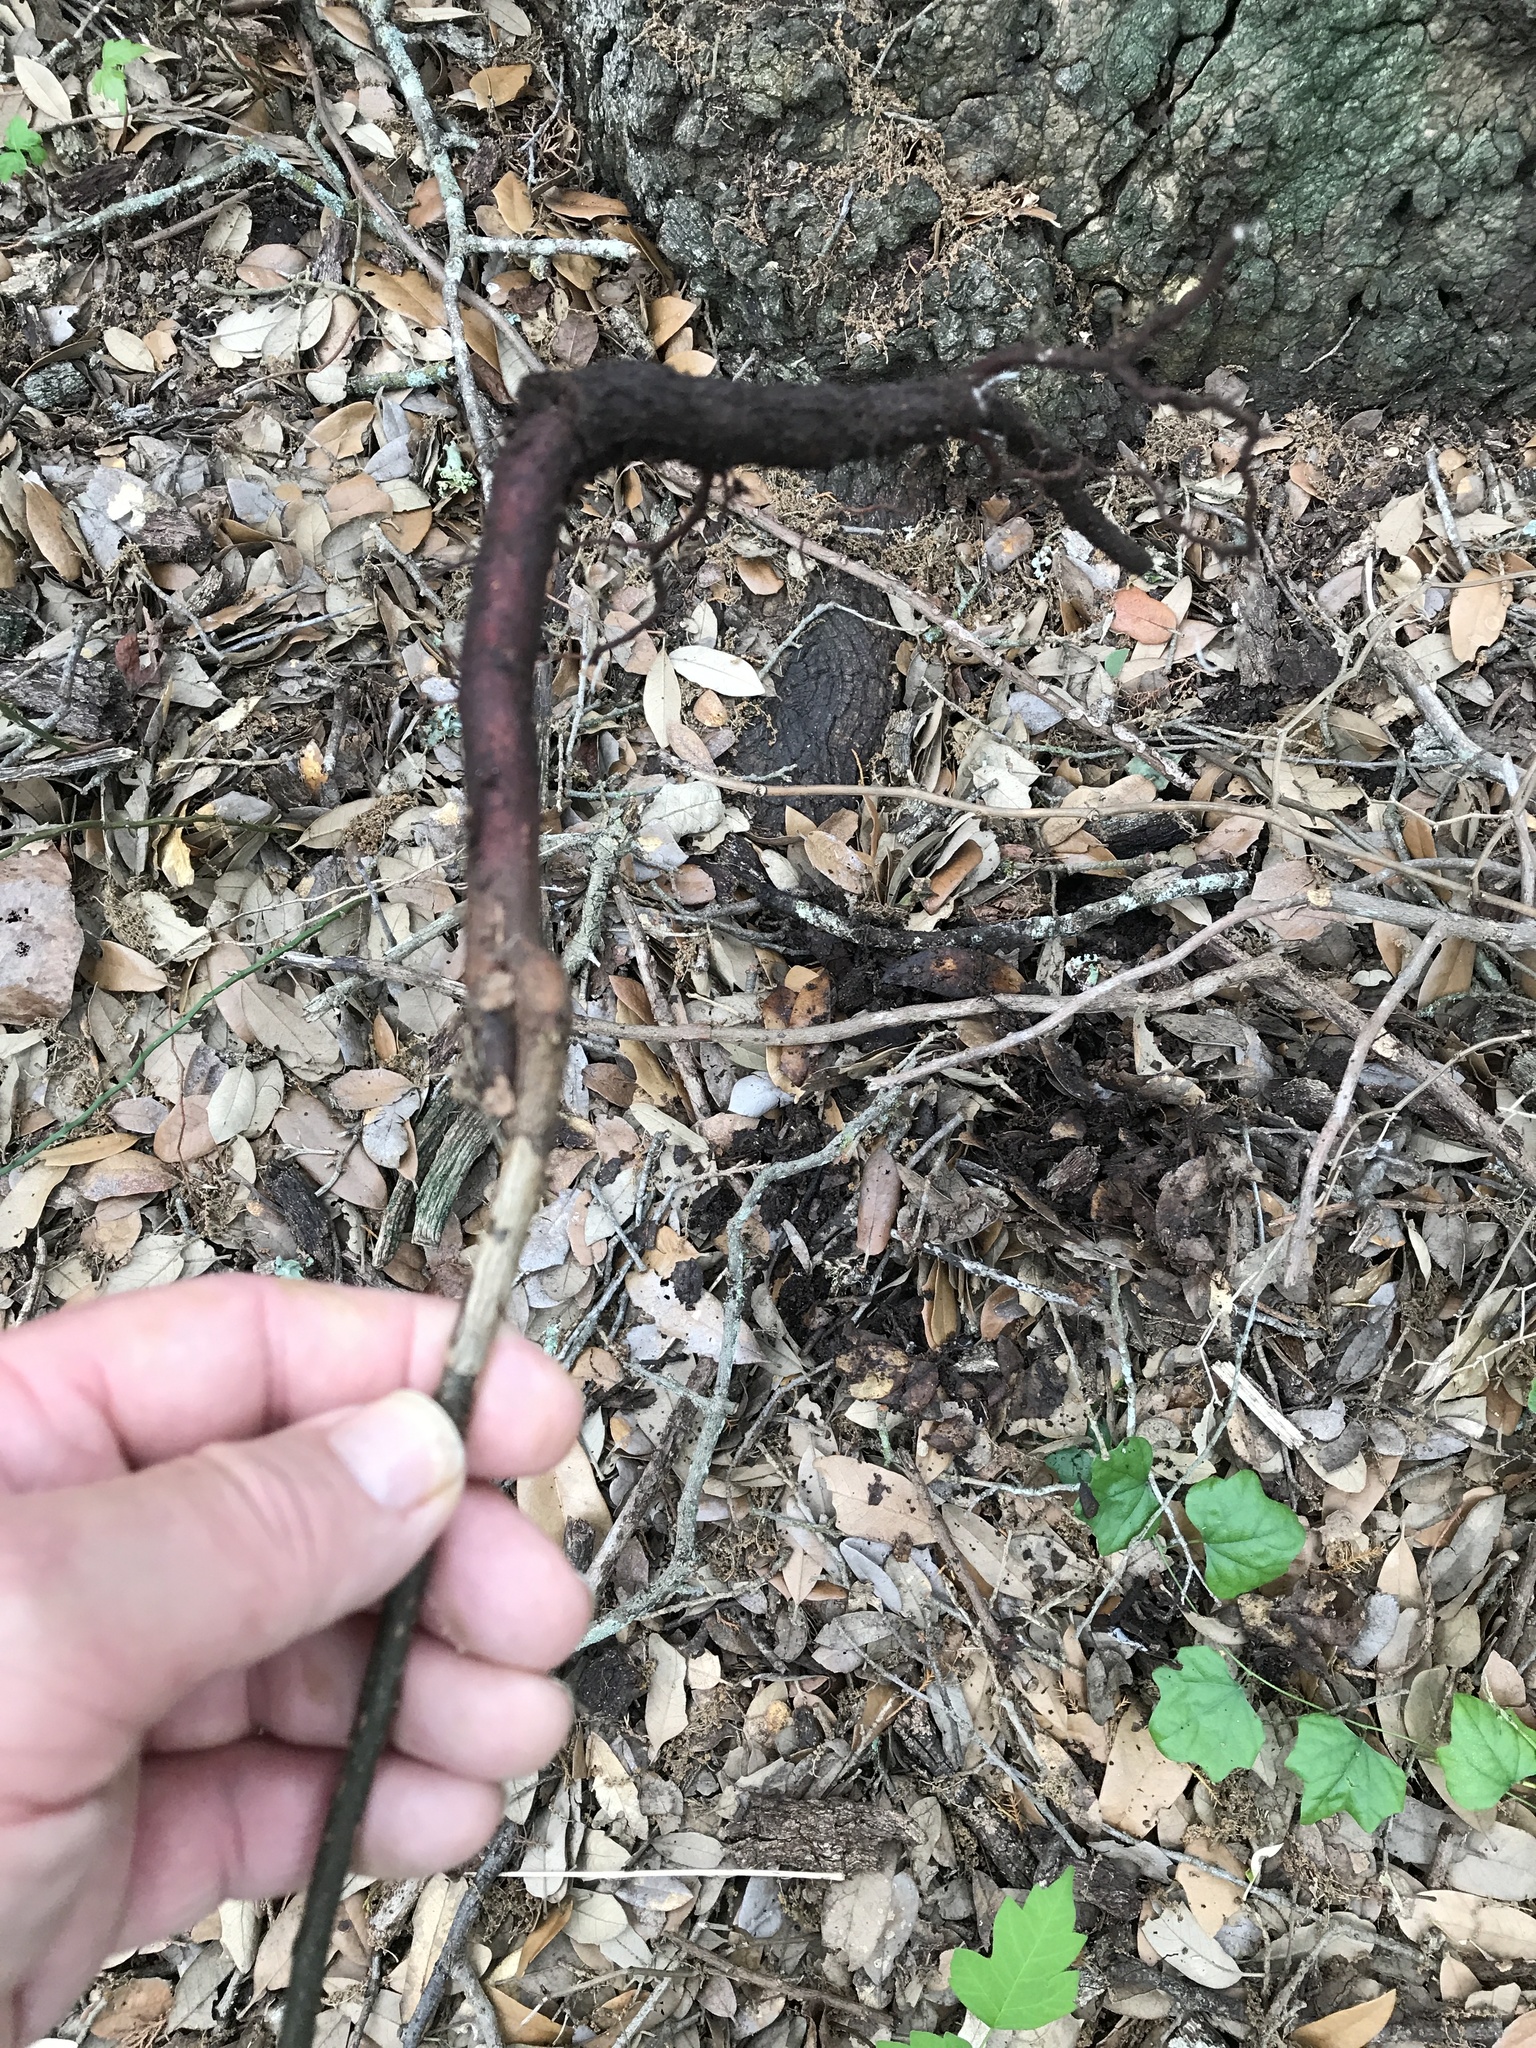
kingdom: Plantae
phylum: Tracheophyta
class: Magnoliopsida
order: Sapindales
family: Meliaceae
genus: Melia
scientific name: Melia azedarach
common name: Chinaberrytree
